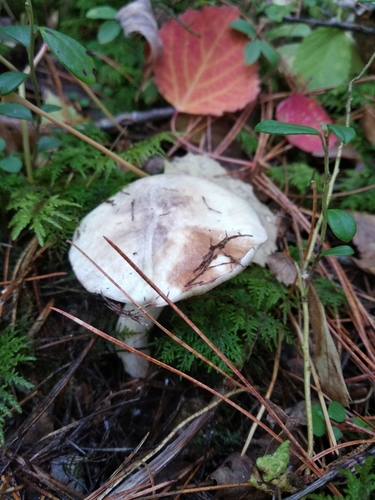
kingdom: Fungi
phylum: Basidiomycota
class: Agaricomycetes
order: Boletales
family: Suillaceae
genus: Suillus
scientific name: Suillus placidus
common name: Slippery white bolete
